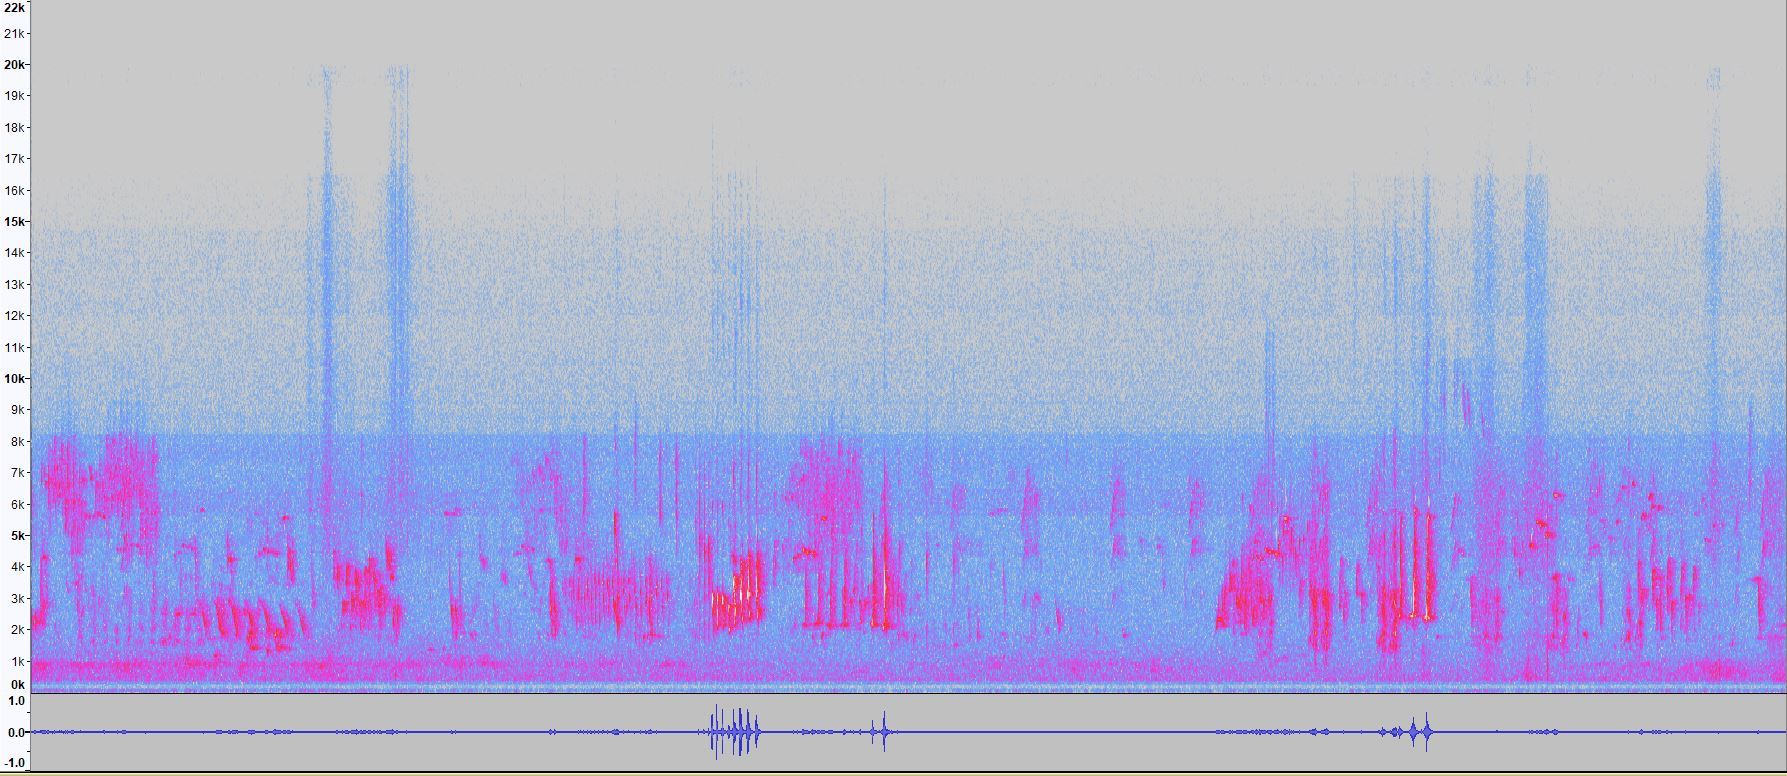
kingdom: Animalia
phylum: Chordata
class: Aves
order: Passeriformes
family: Campephagidae
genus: Coracina
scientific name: Coracina novaehollandiae
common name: Black-faced cuckooshrike
